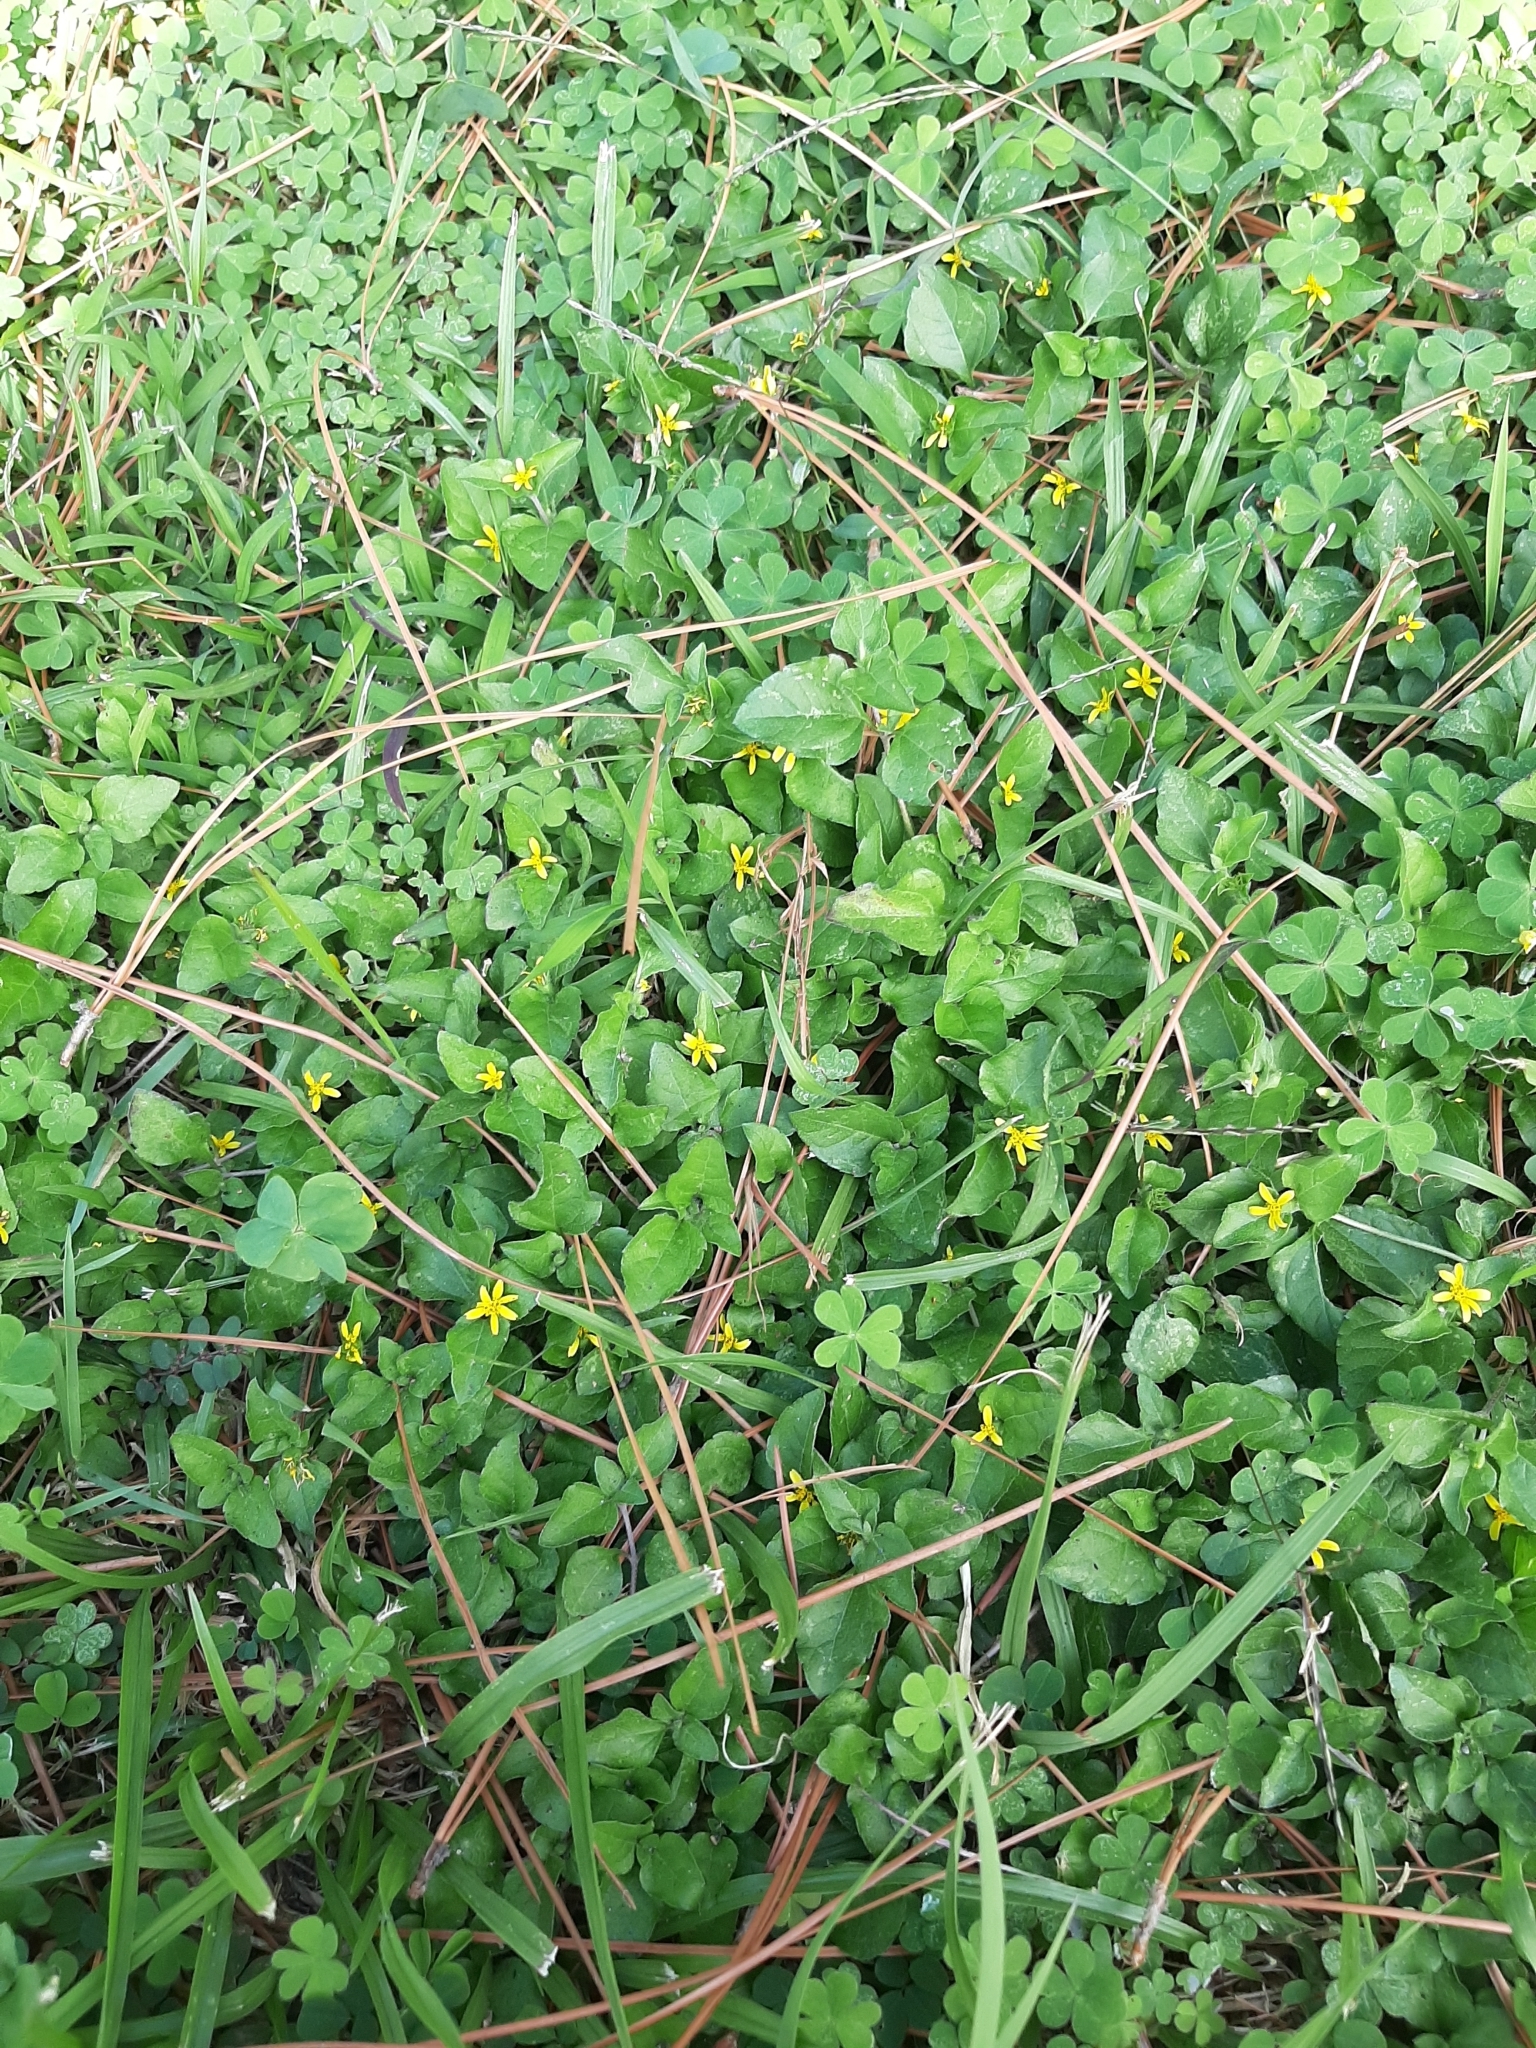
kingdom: Plantae
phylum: Tracheophyta
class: Magnoliopsida
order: Asterales
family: Asteraceae
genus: Calyptocarpus
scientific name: Calyptocarpus vialis
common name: Straggler daisy
